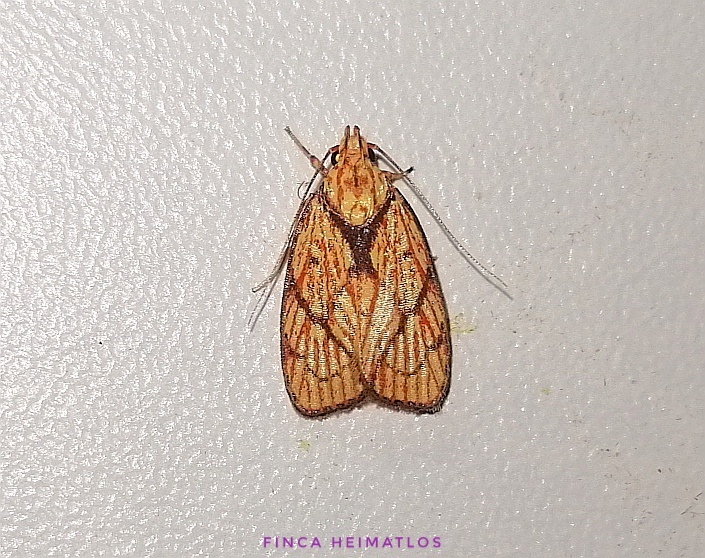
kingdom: Animalia
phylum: Arthropoda
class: Insecta
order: Lepidoptera
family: Peleopodidae
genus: Machimia
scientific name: Machimia
